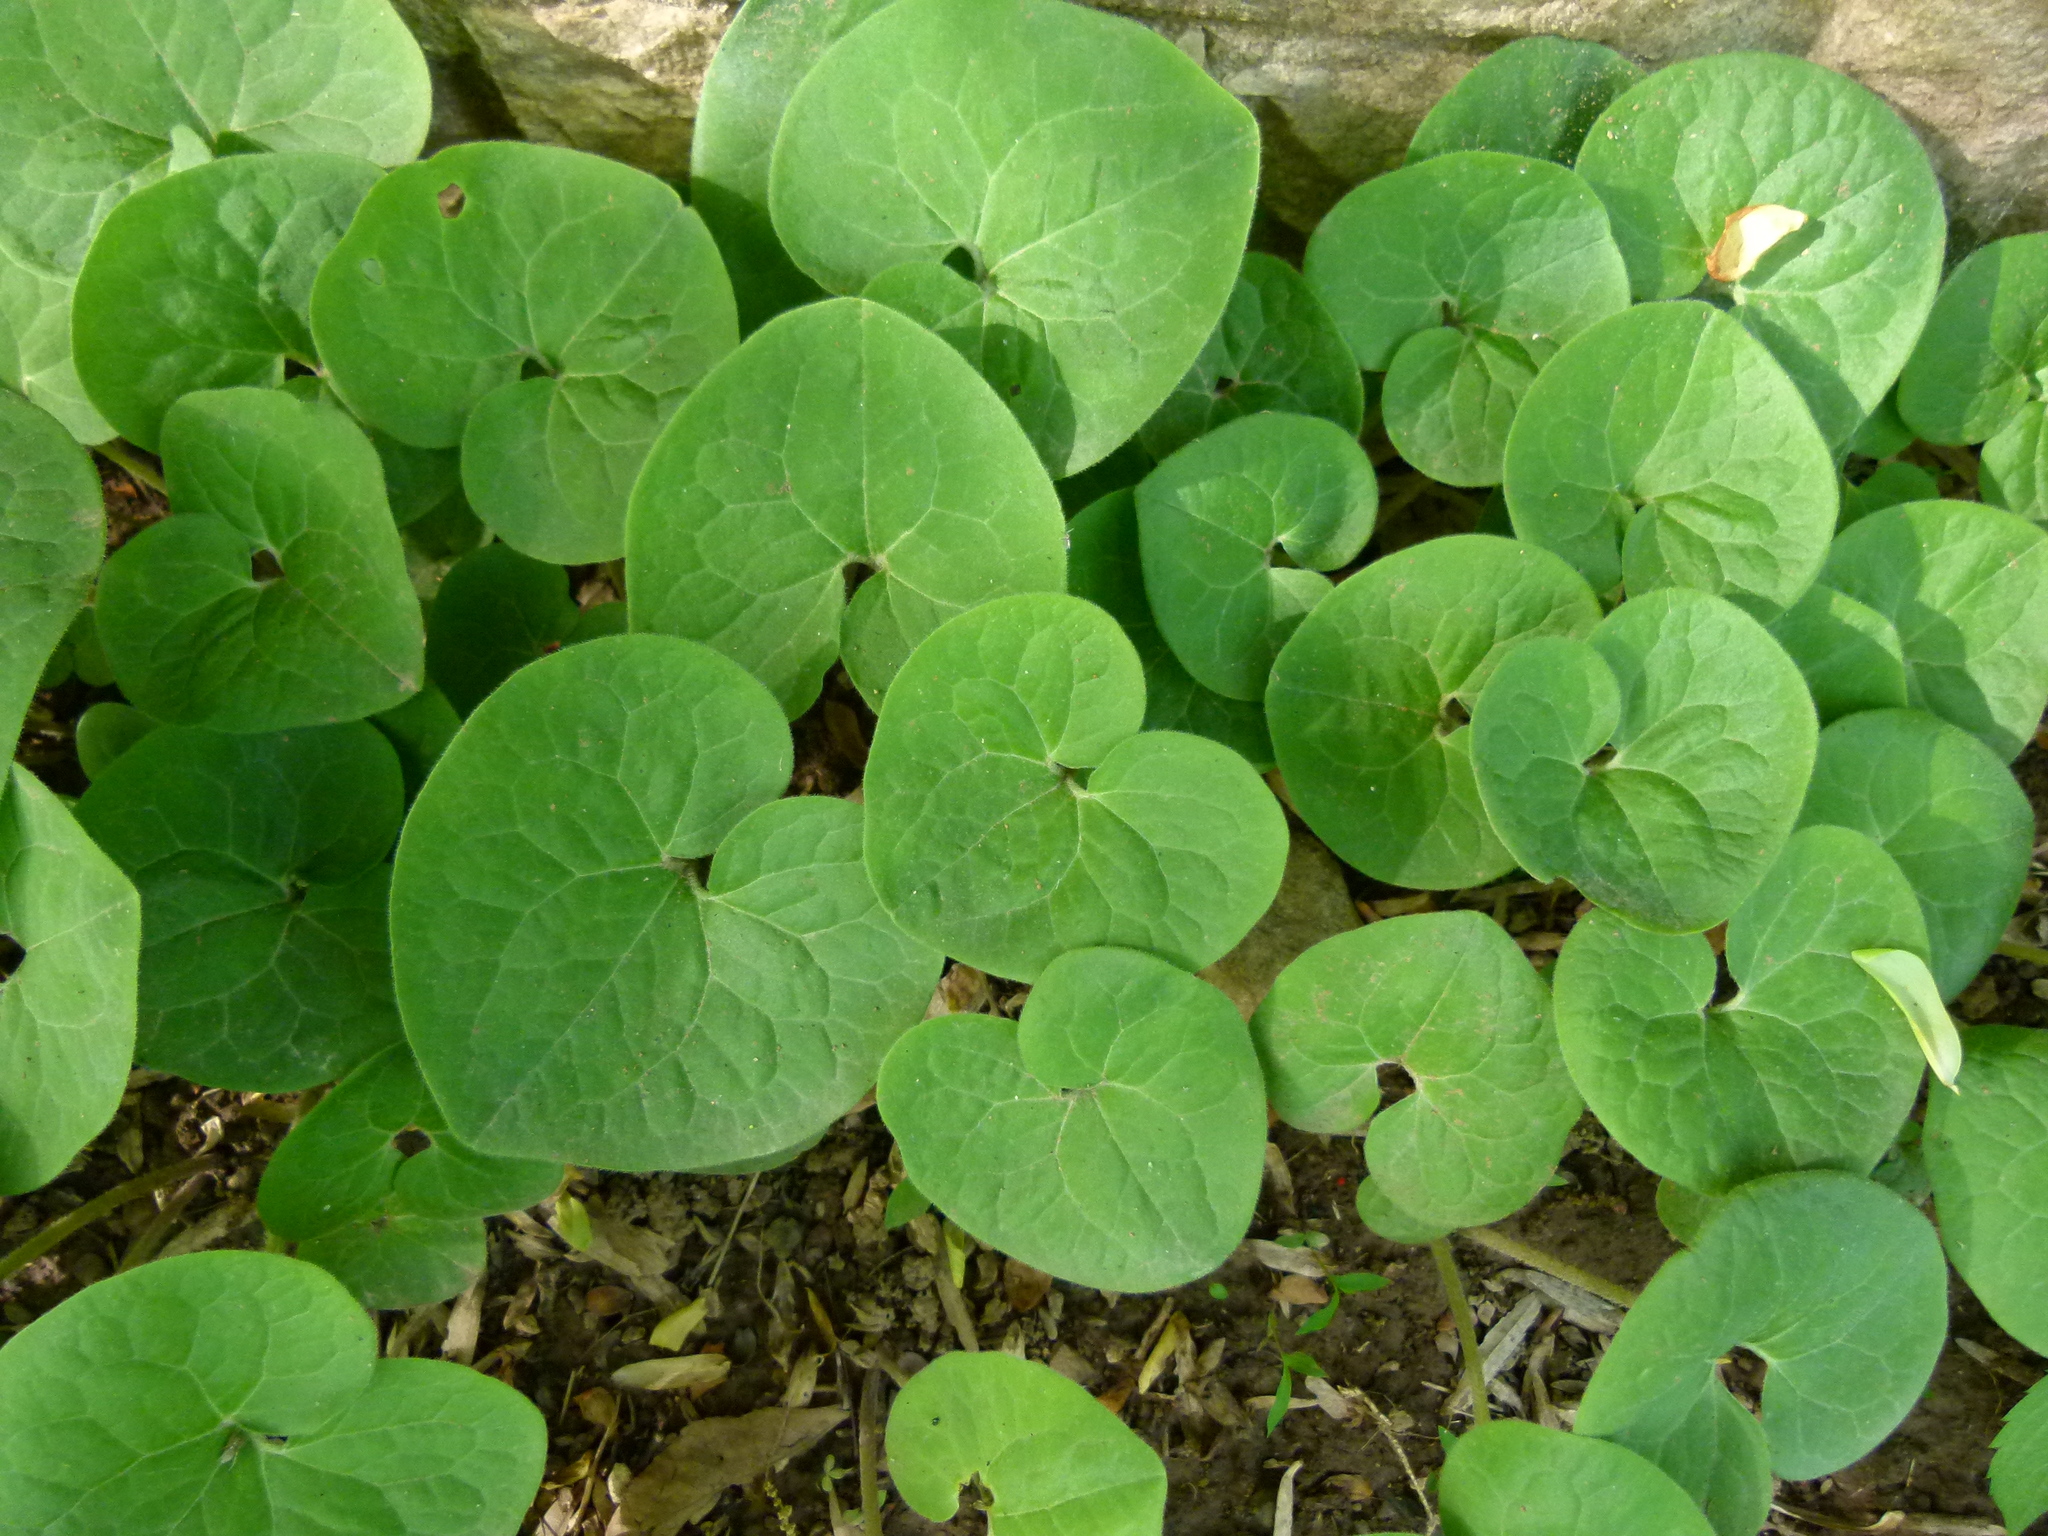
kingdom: Plantae
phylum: Tracheophyta
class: Magnoliopsida
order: Piperales
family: Aristolochiaceae
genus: Asarum
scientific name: Asarum canadense
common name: Wild ginger
